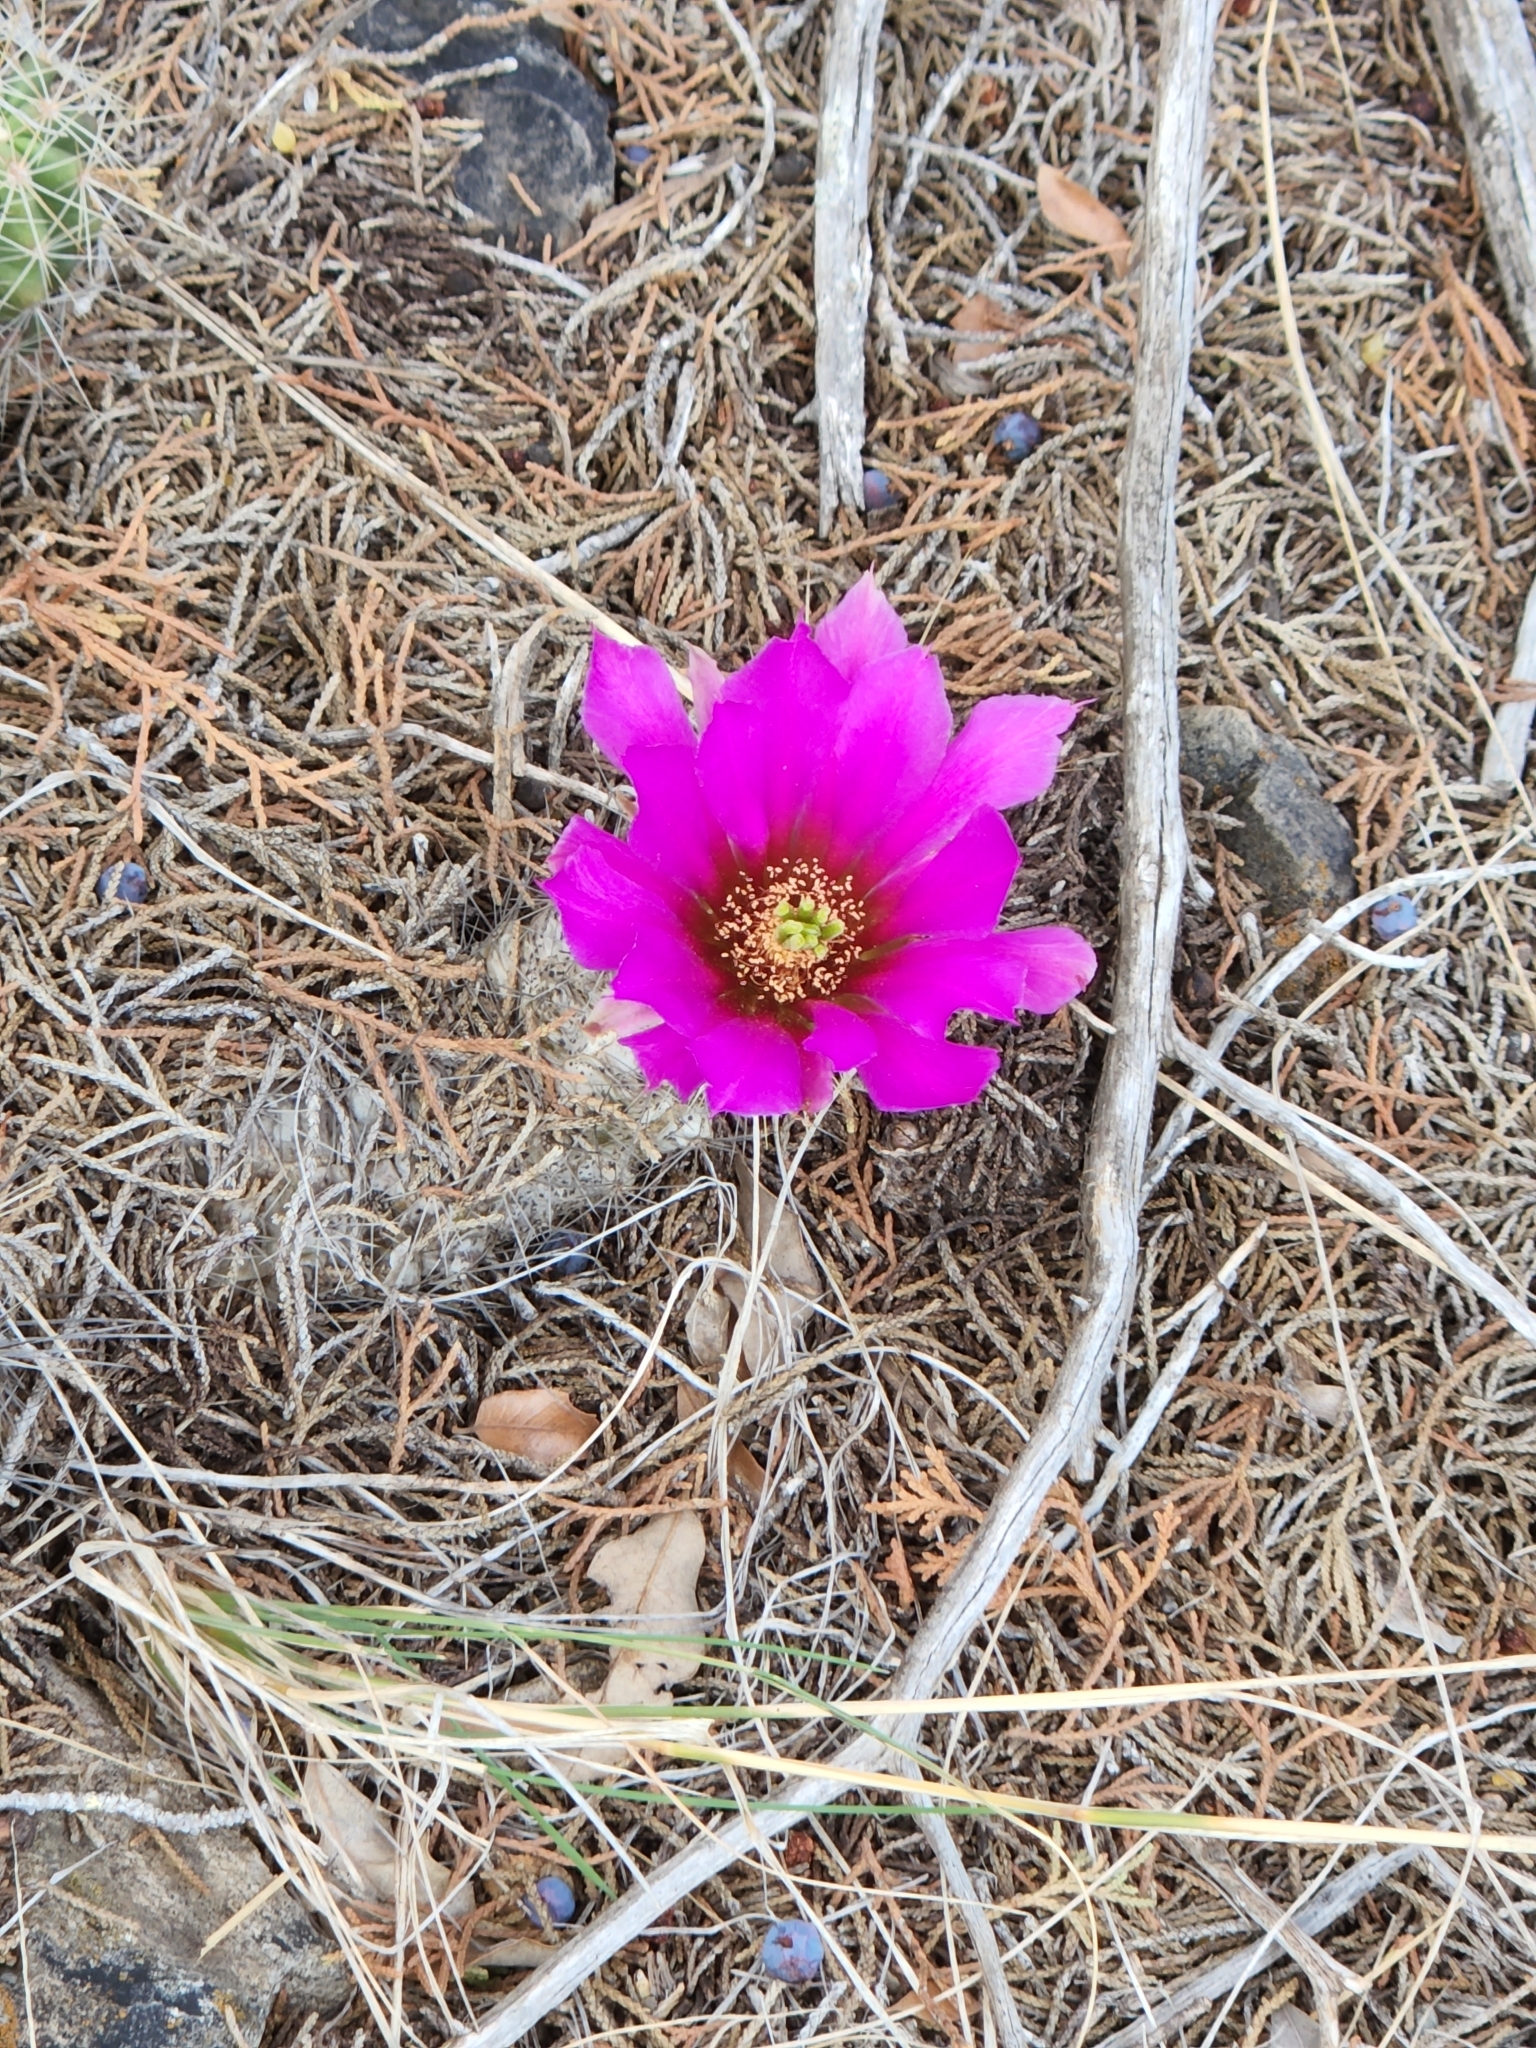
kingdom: Plantae
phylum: Tracheophyta
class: Magnoliopsida
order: Caryophyllales
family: Cactaceae
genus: Echinocereus
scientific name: Echinocereus enneacanthus
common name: Pitaya
